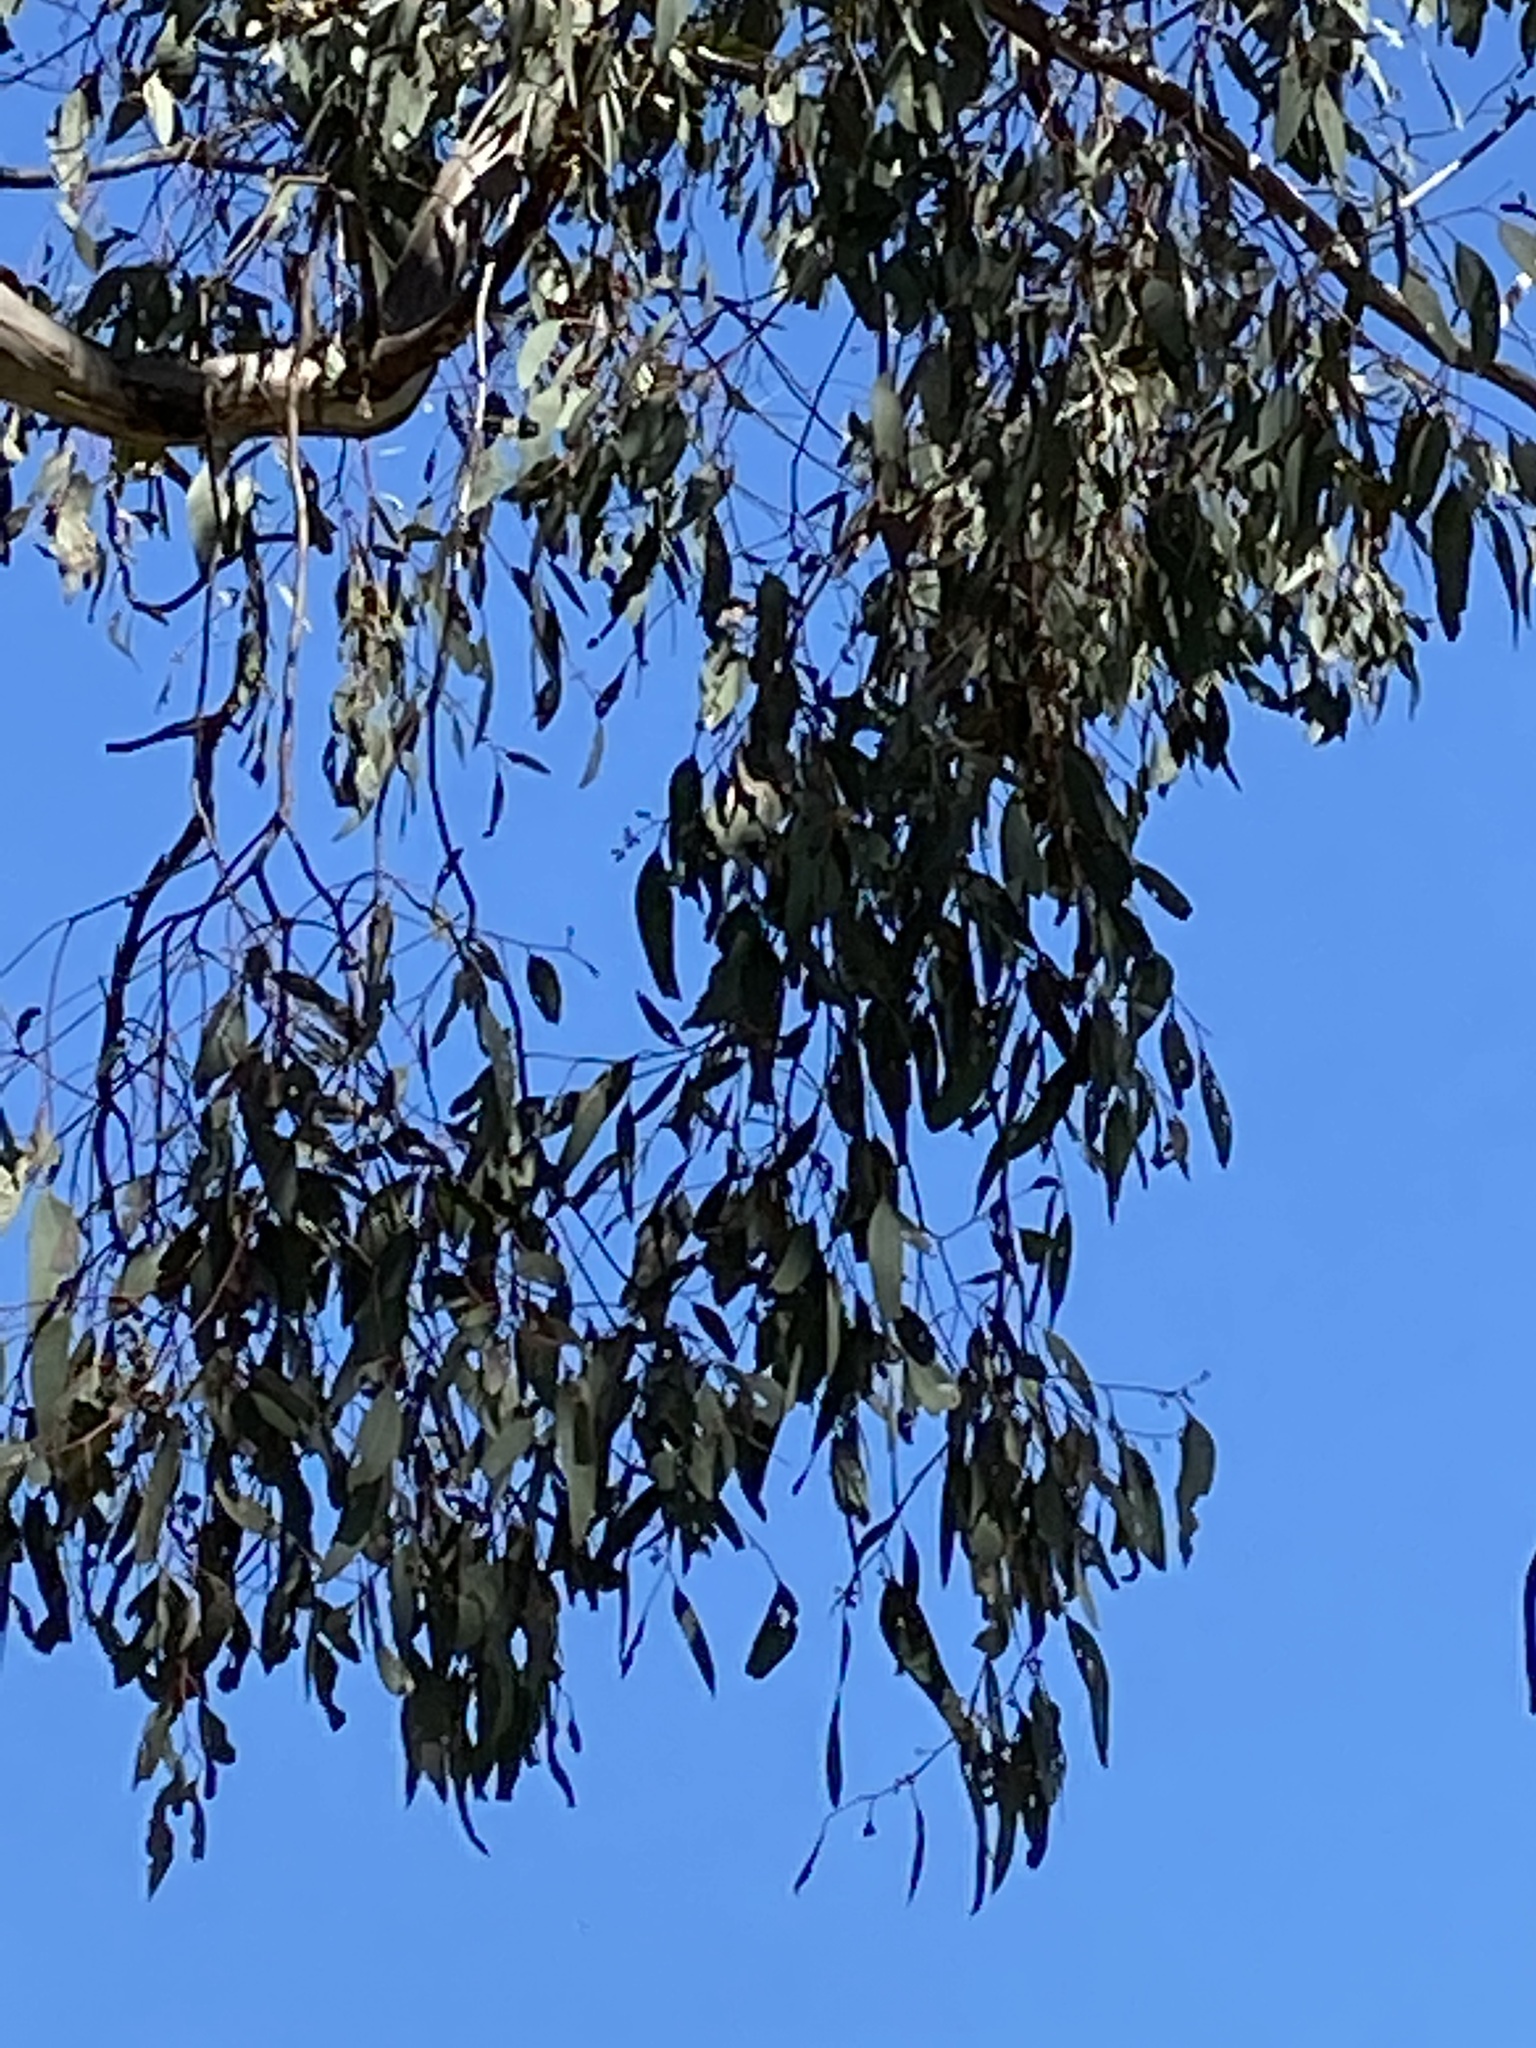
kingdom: Plantae
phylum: Tracheophyta
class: Magnoliopsida
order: Santalales
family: Loranthaceae
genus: Amyema
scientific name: Amyema miquelii
